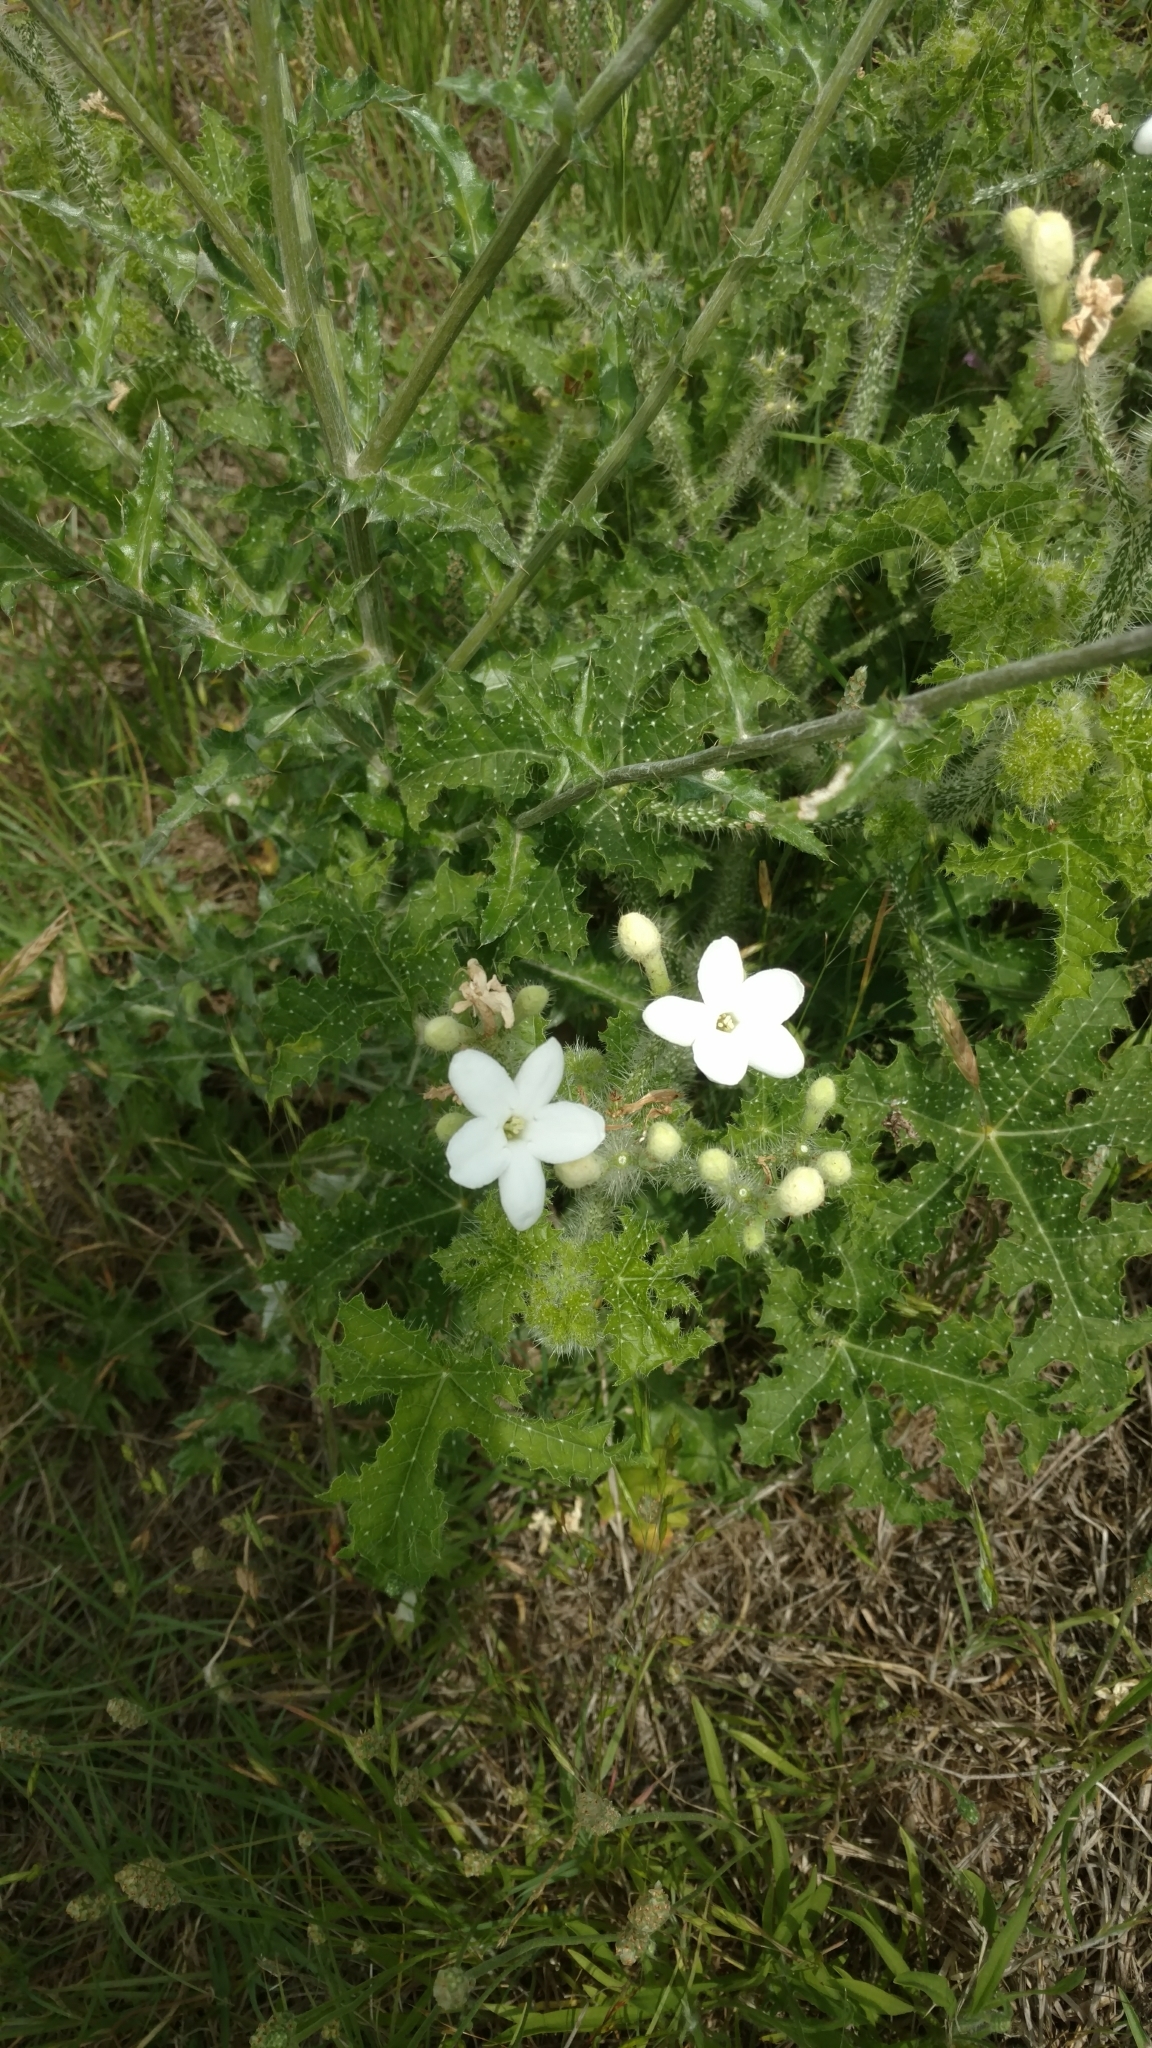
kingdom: Plantae
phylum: Tracheophyta
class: Magnoliopsida
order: Malpighiales
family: Euphorbiaceae
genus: Cnidoscolus
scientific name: Cnidoscolus texanus
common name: Texas bull-nettle
